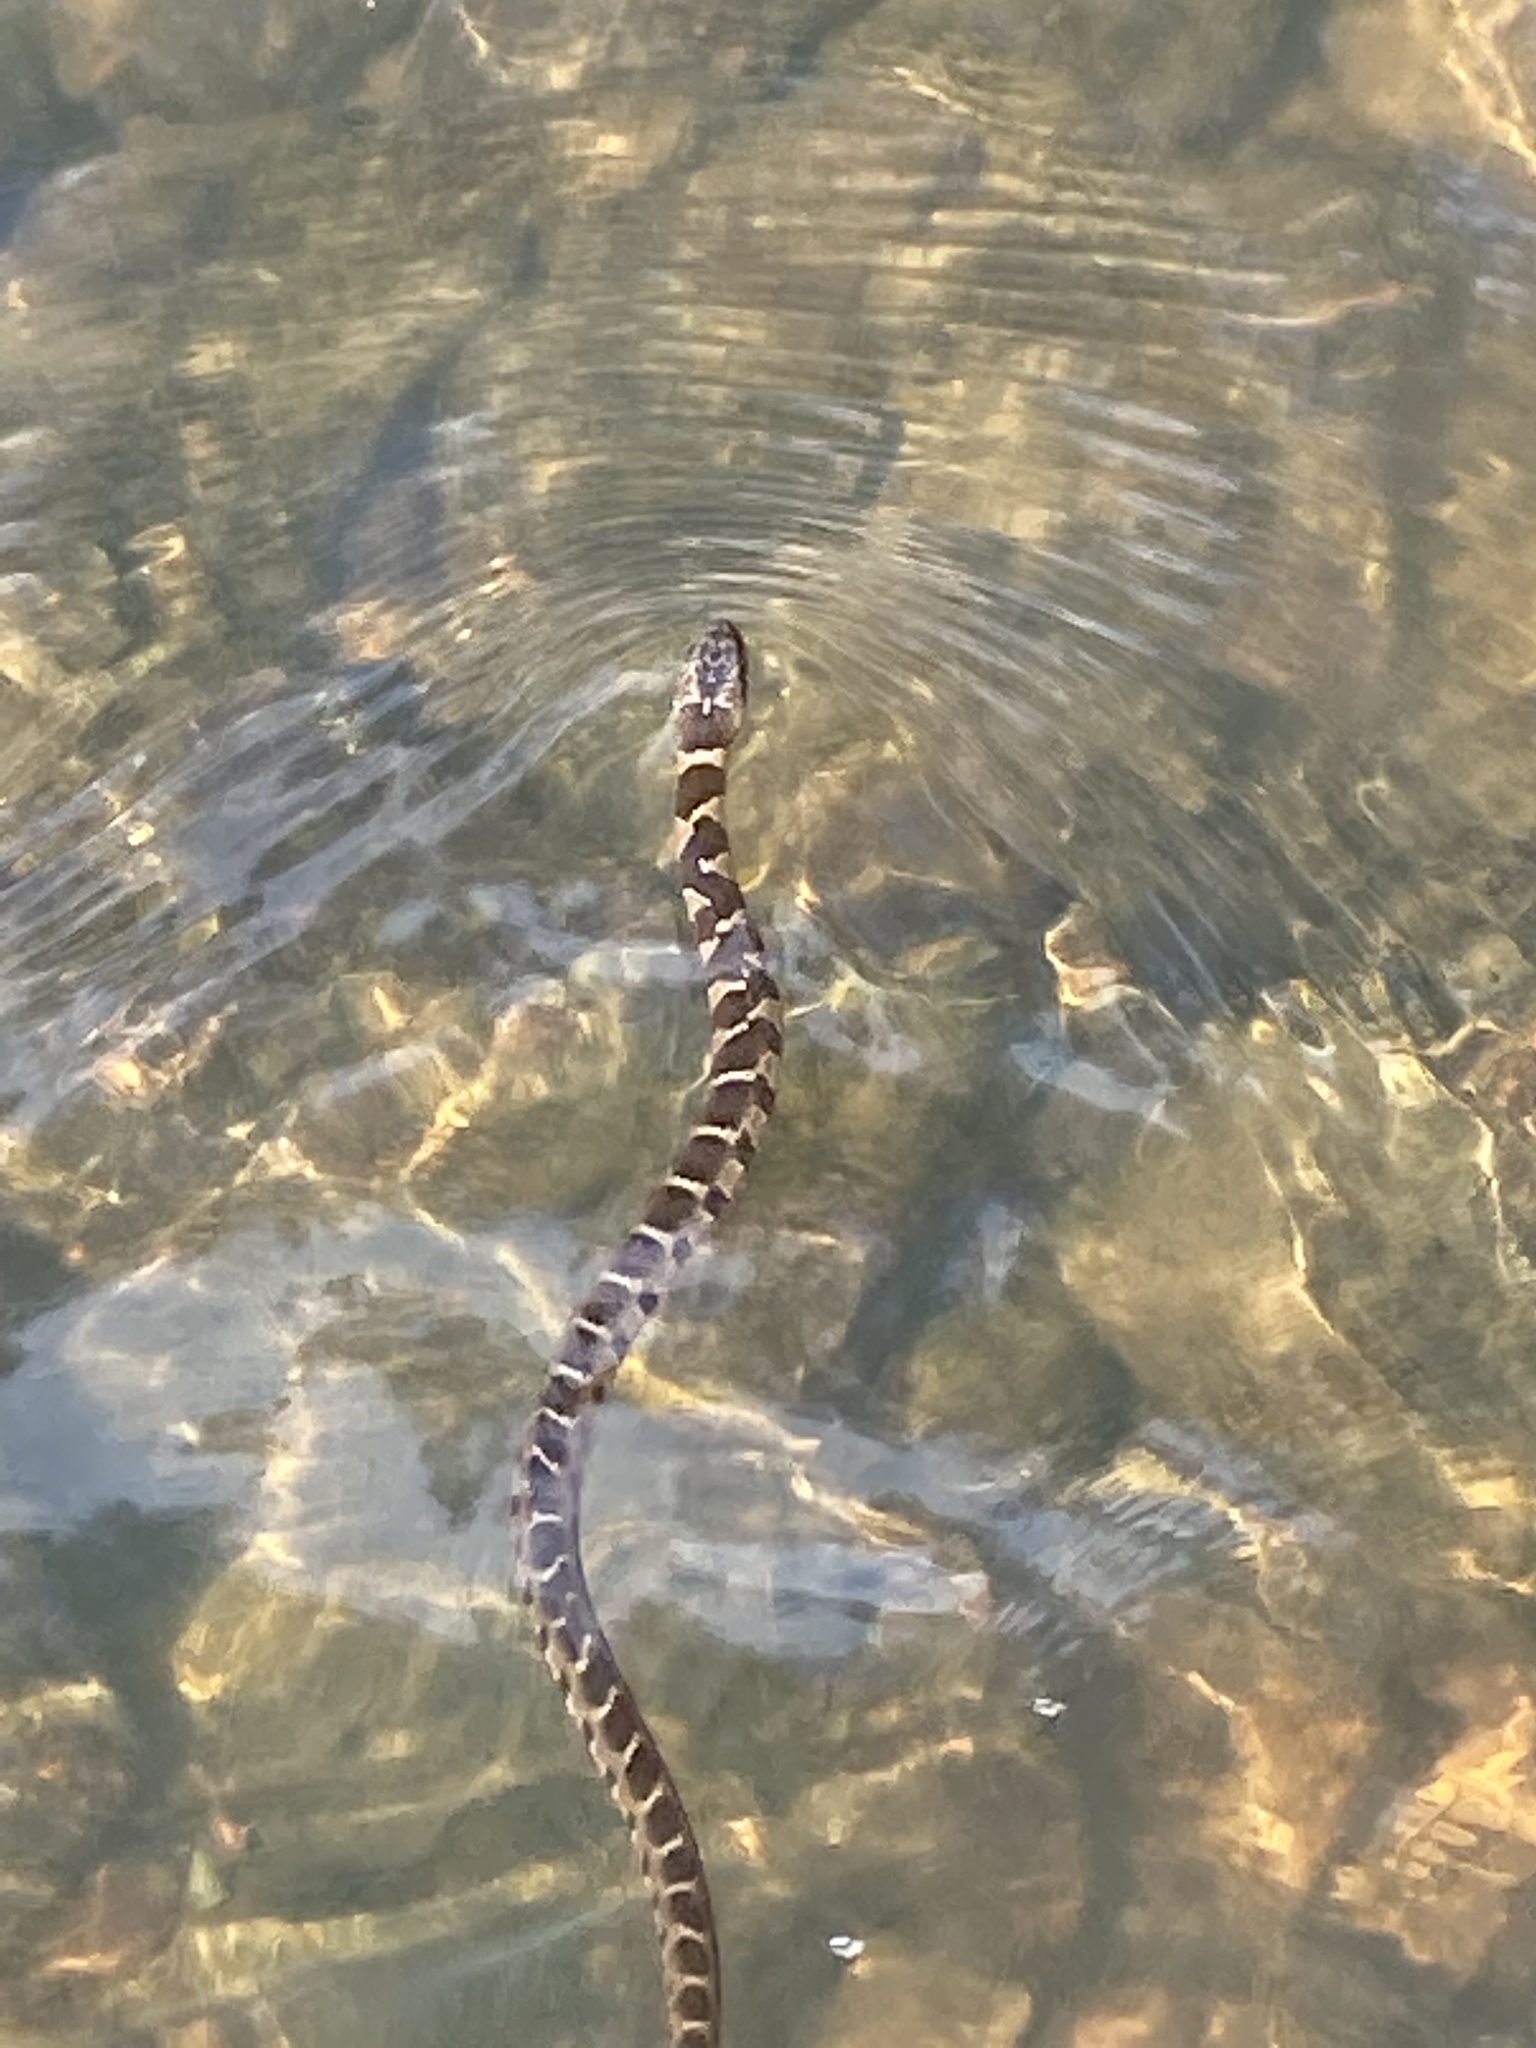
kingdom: Animalia
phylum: Chordata
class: Squamata
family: Colubridae
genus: Nerodia
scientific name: Nerodia sipedon
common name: Northern water snake
